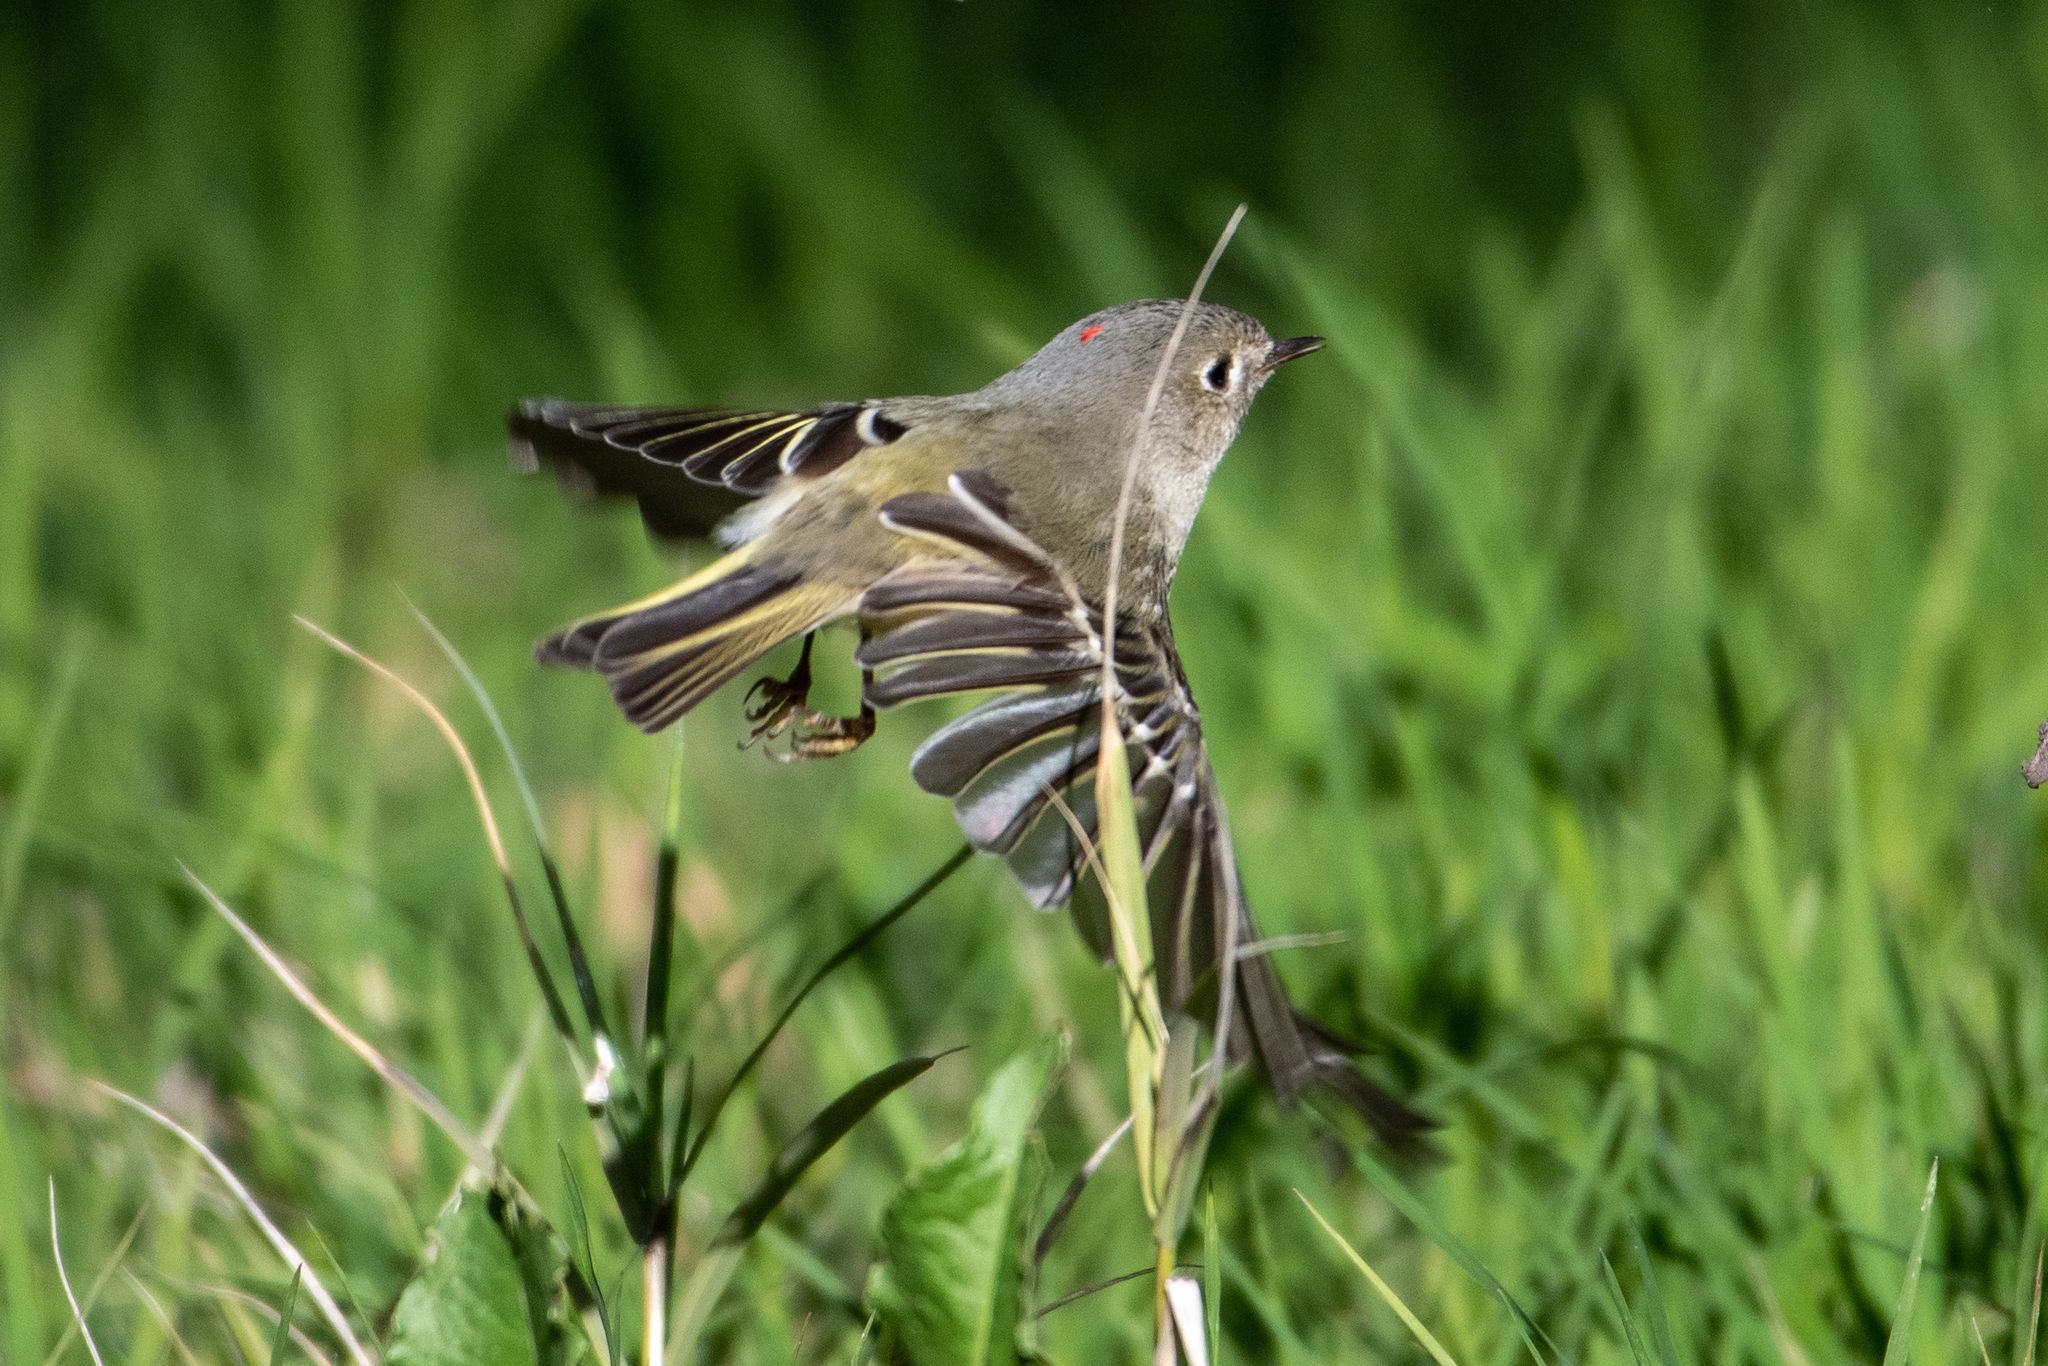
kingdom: Animalia
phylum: Chordata
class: Aves
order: Passeriformes
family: Regulidae
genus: Regulus
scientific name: Regulus calendula
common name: Ruby-crowned kinglet
